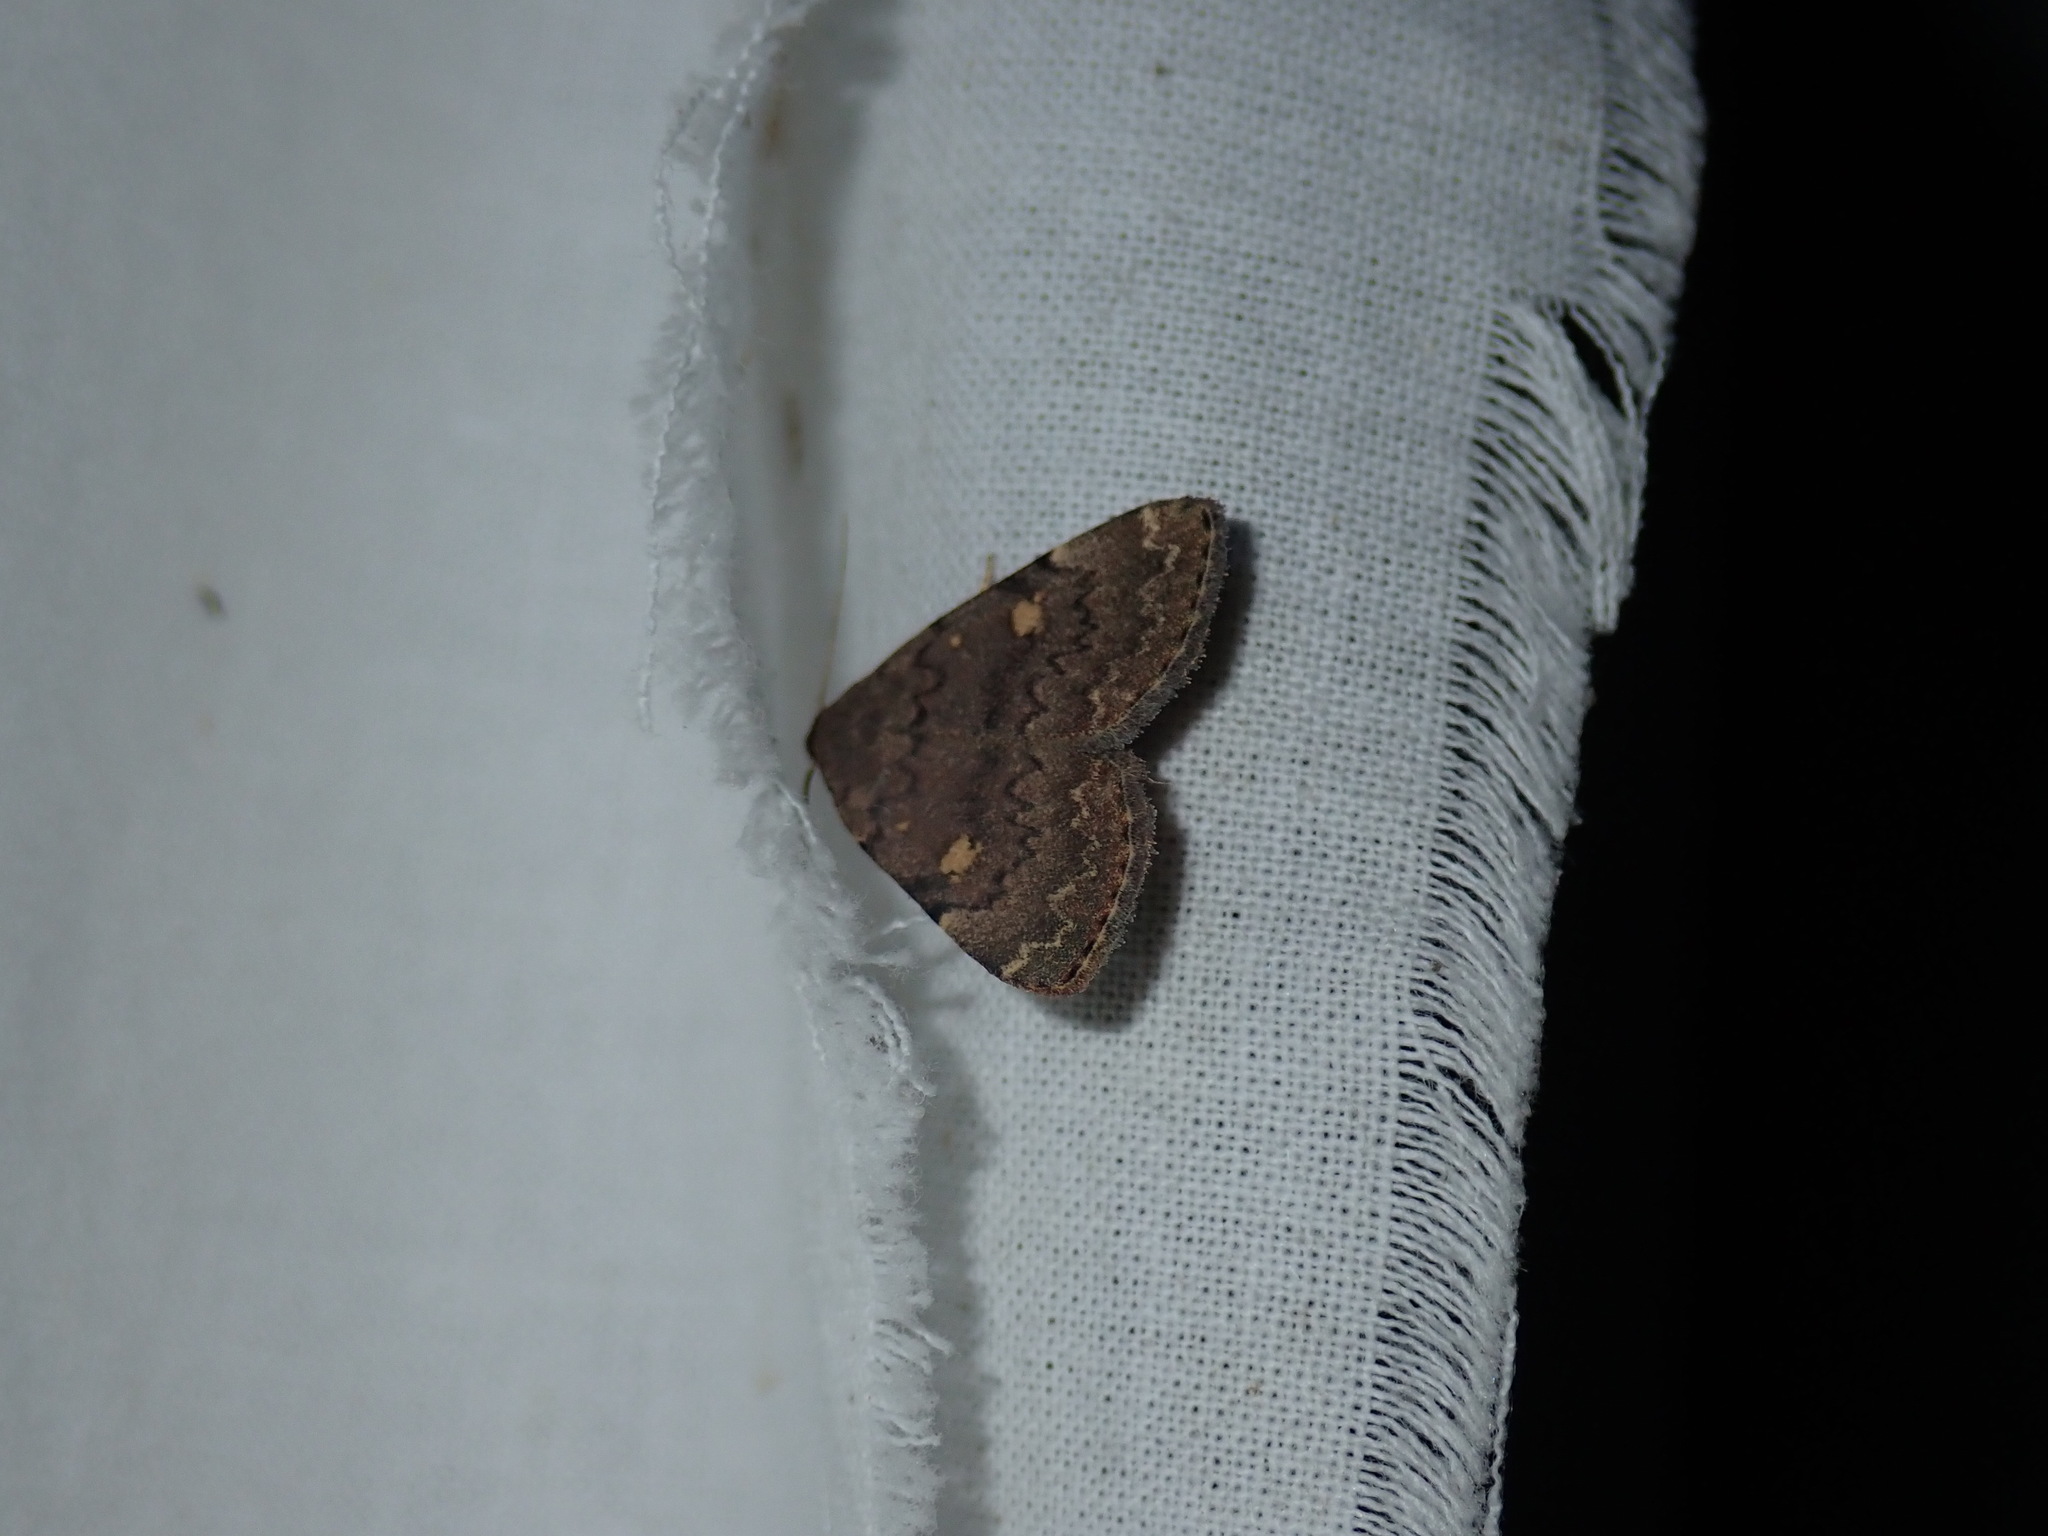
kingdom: Animalia
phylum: Arthropoda
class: Insecta
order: Lepidoptera
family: Erebidae
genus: Idia
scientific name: Idia aemula
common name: Common idia moth
